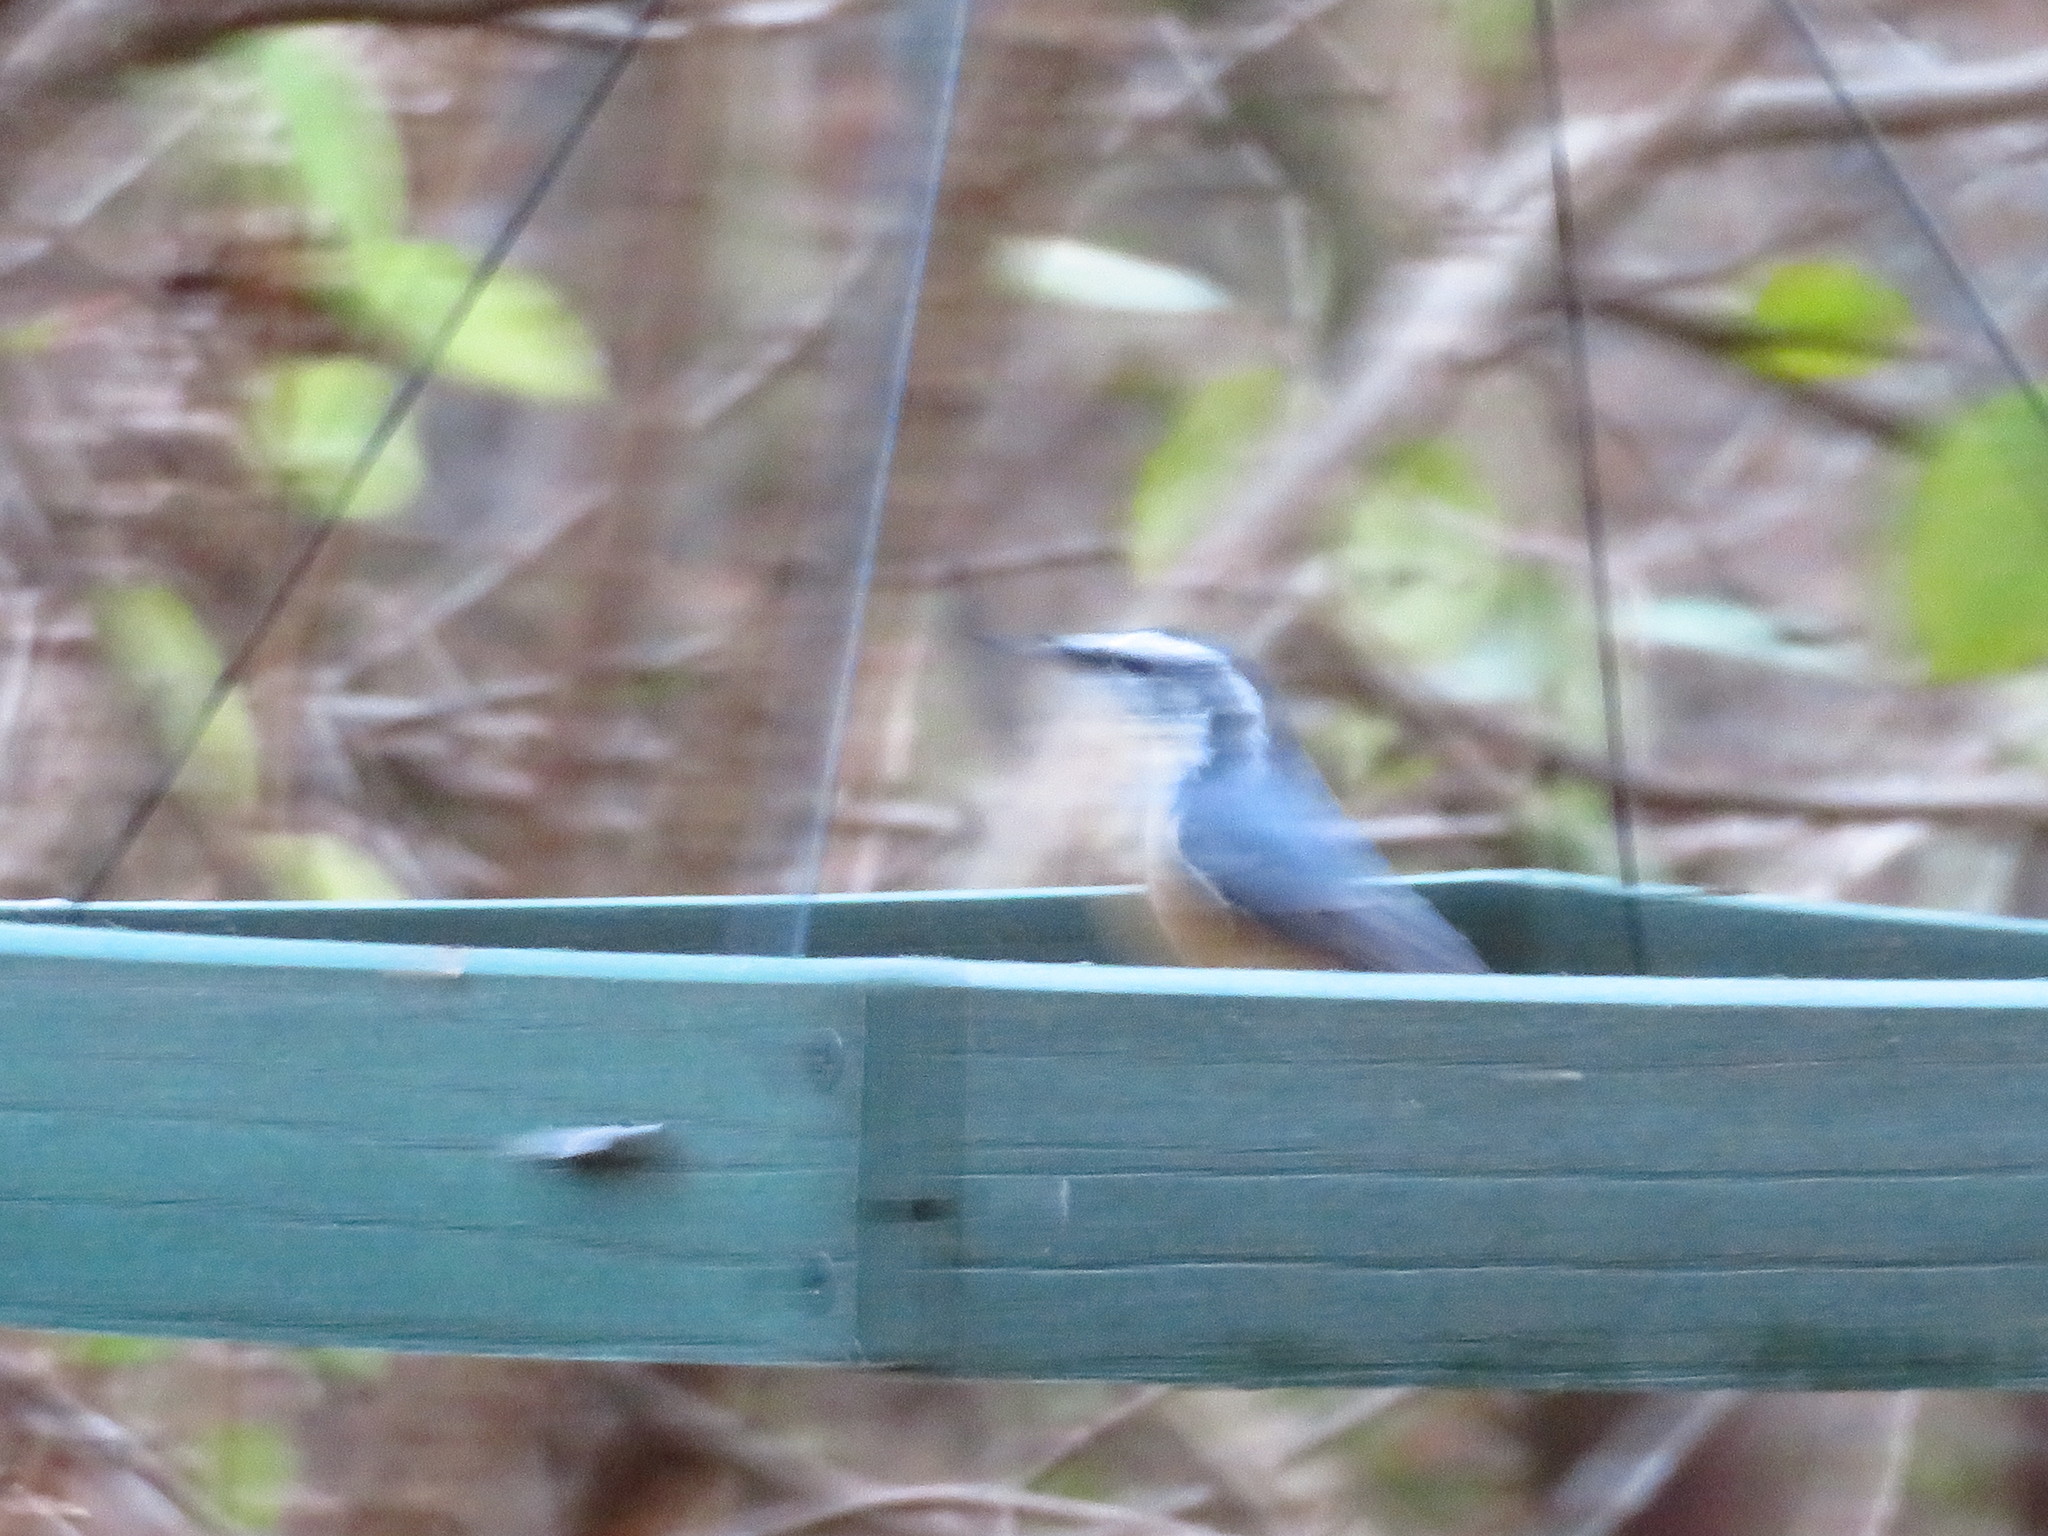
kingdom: Animalia
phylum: Chordata
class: Aves
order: Passeriformes
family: Sittidae
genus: Sitta
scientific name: Sitta canadensis
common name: Red-breasted nuthatch
